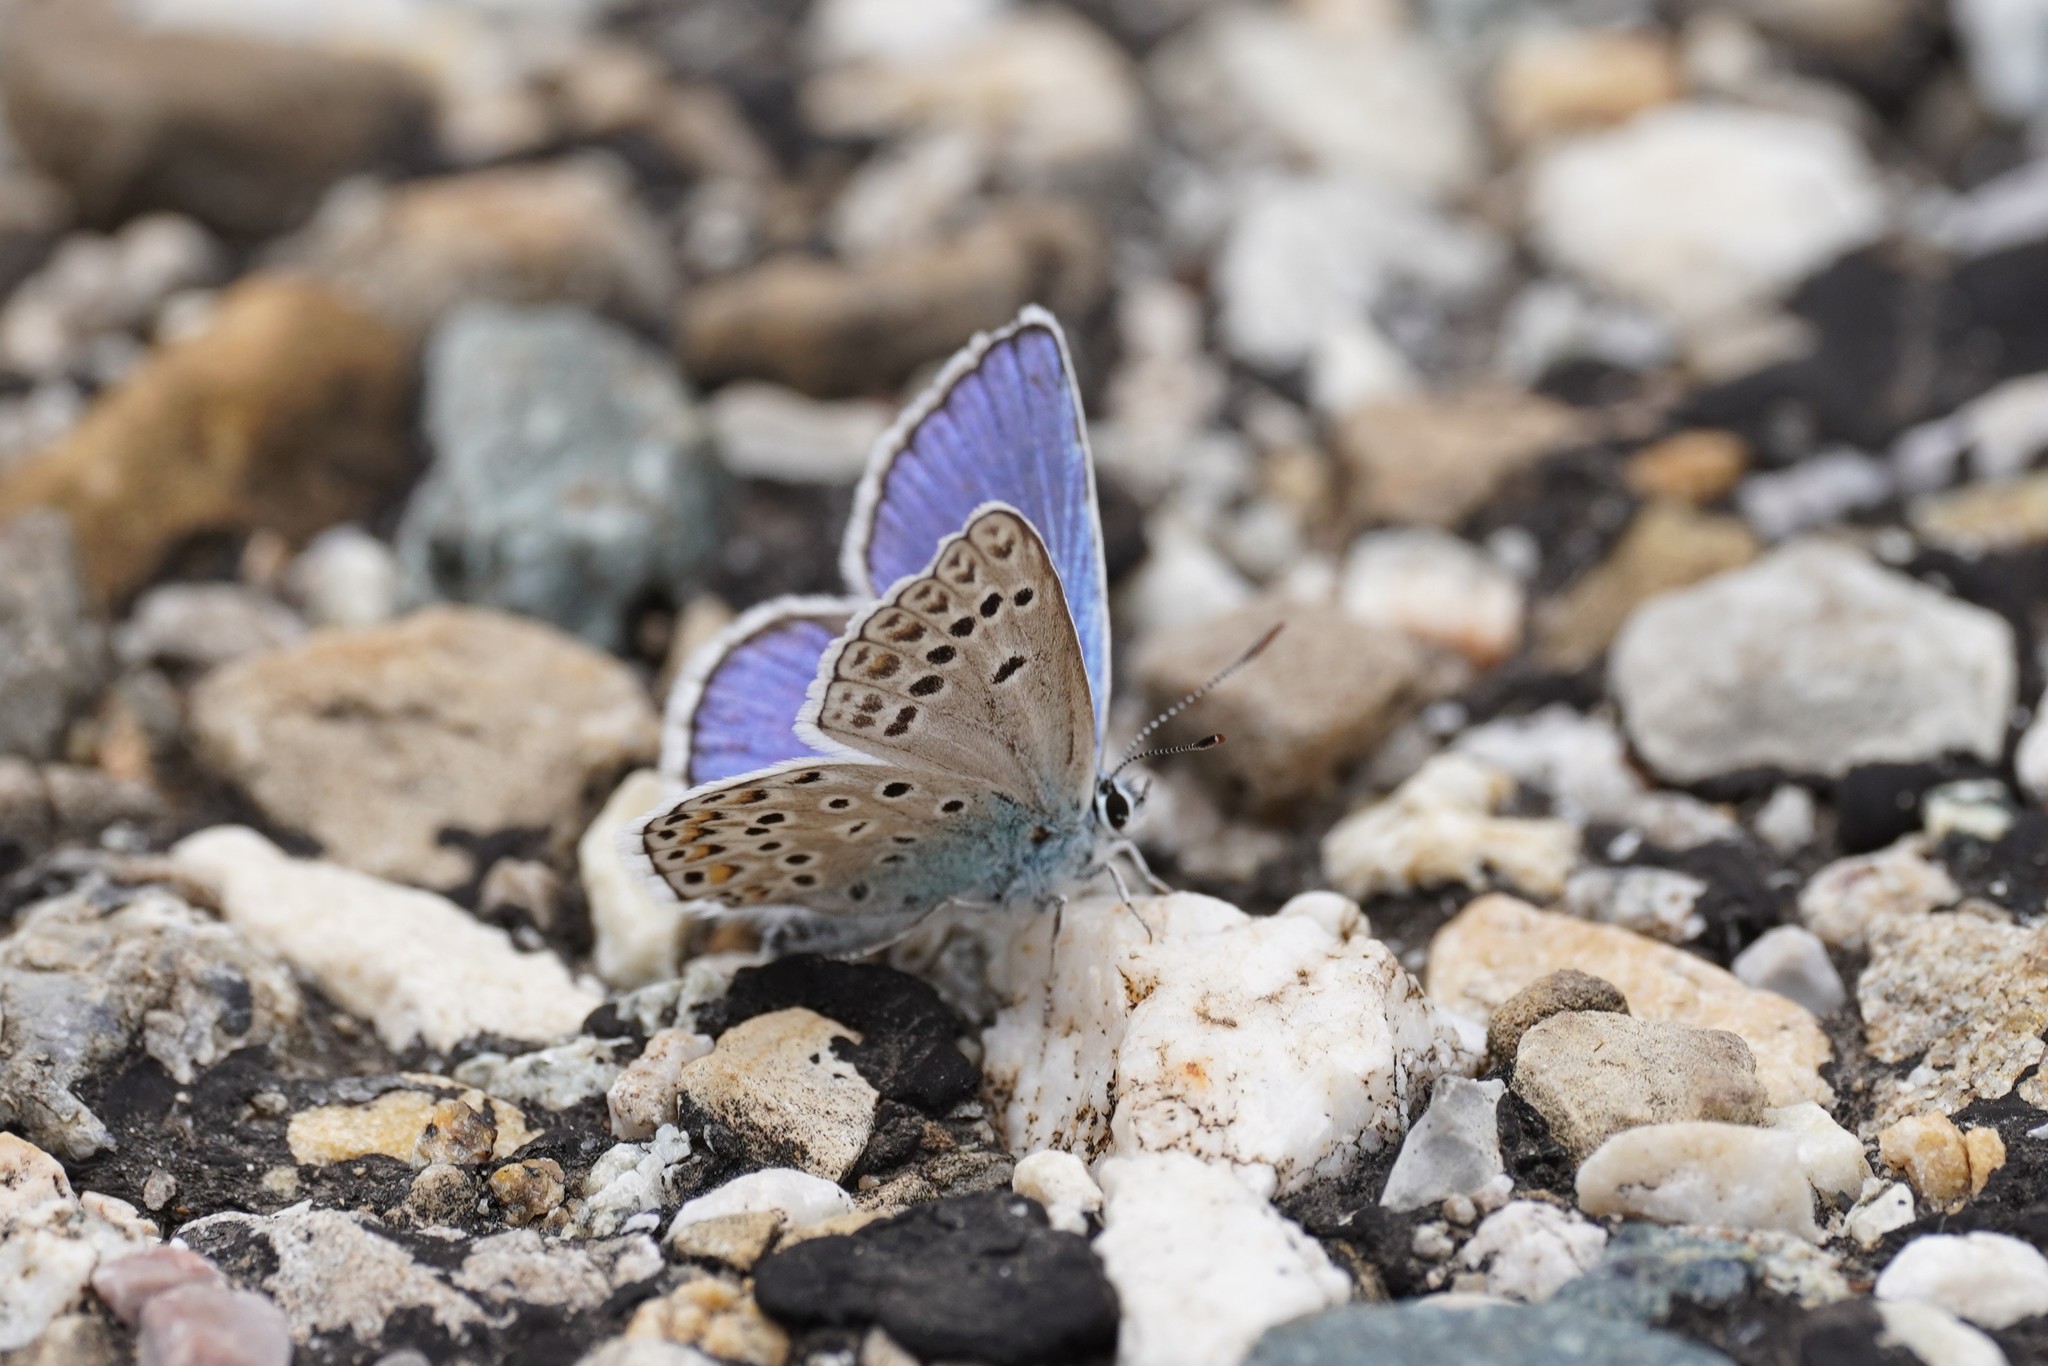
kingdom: Animalia
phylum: Arthropoda
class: Insecta
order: Lepidoptera
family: Lycaenidae
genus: Plebicula
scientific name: Plebicula escheri
